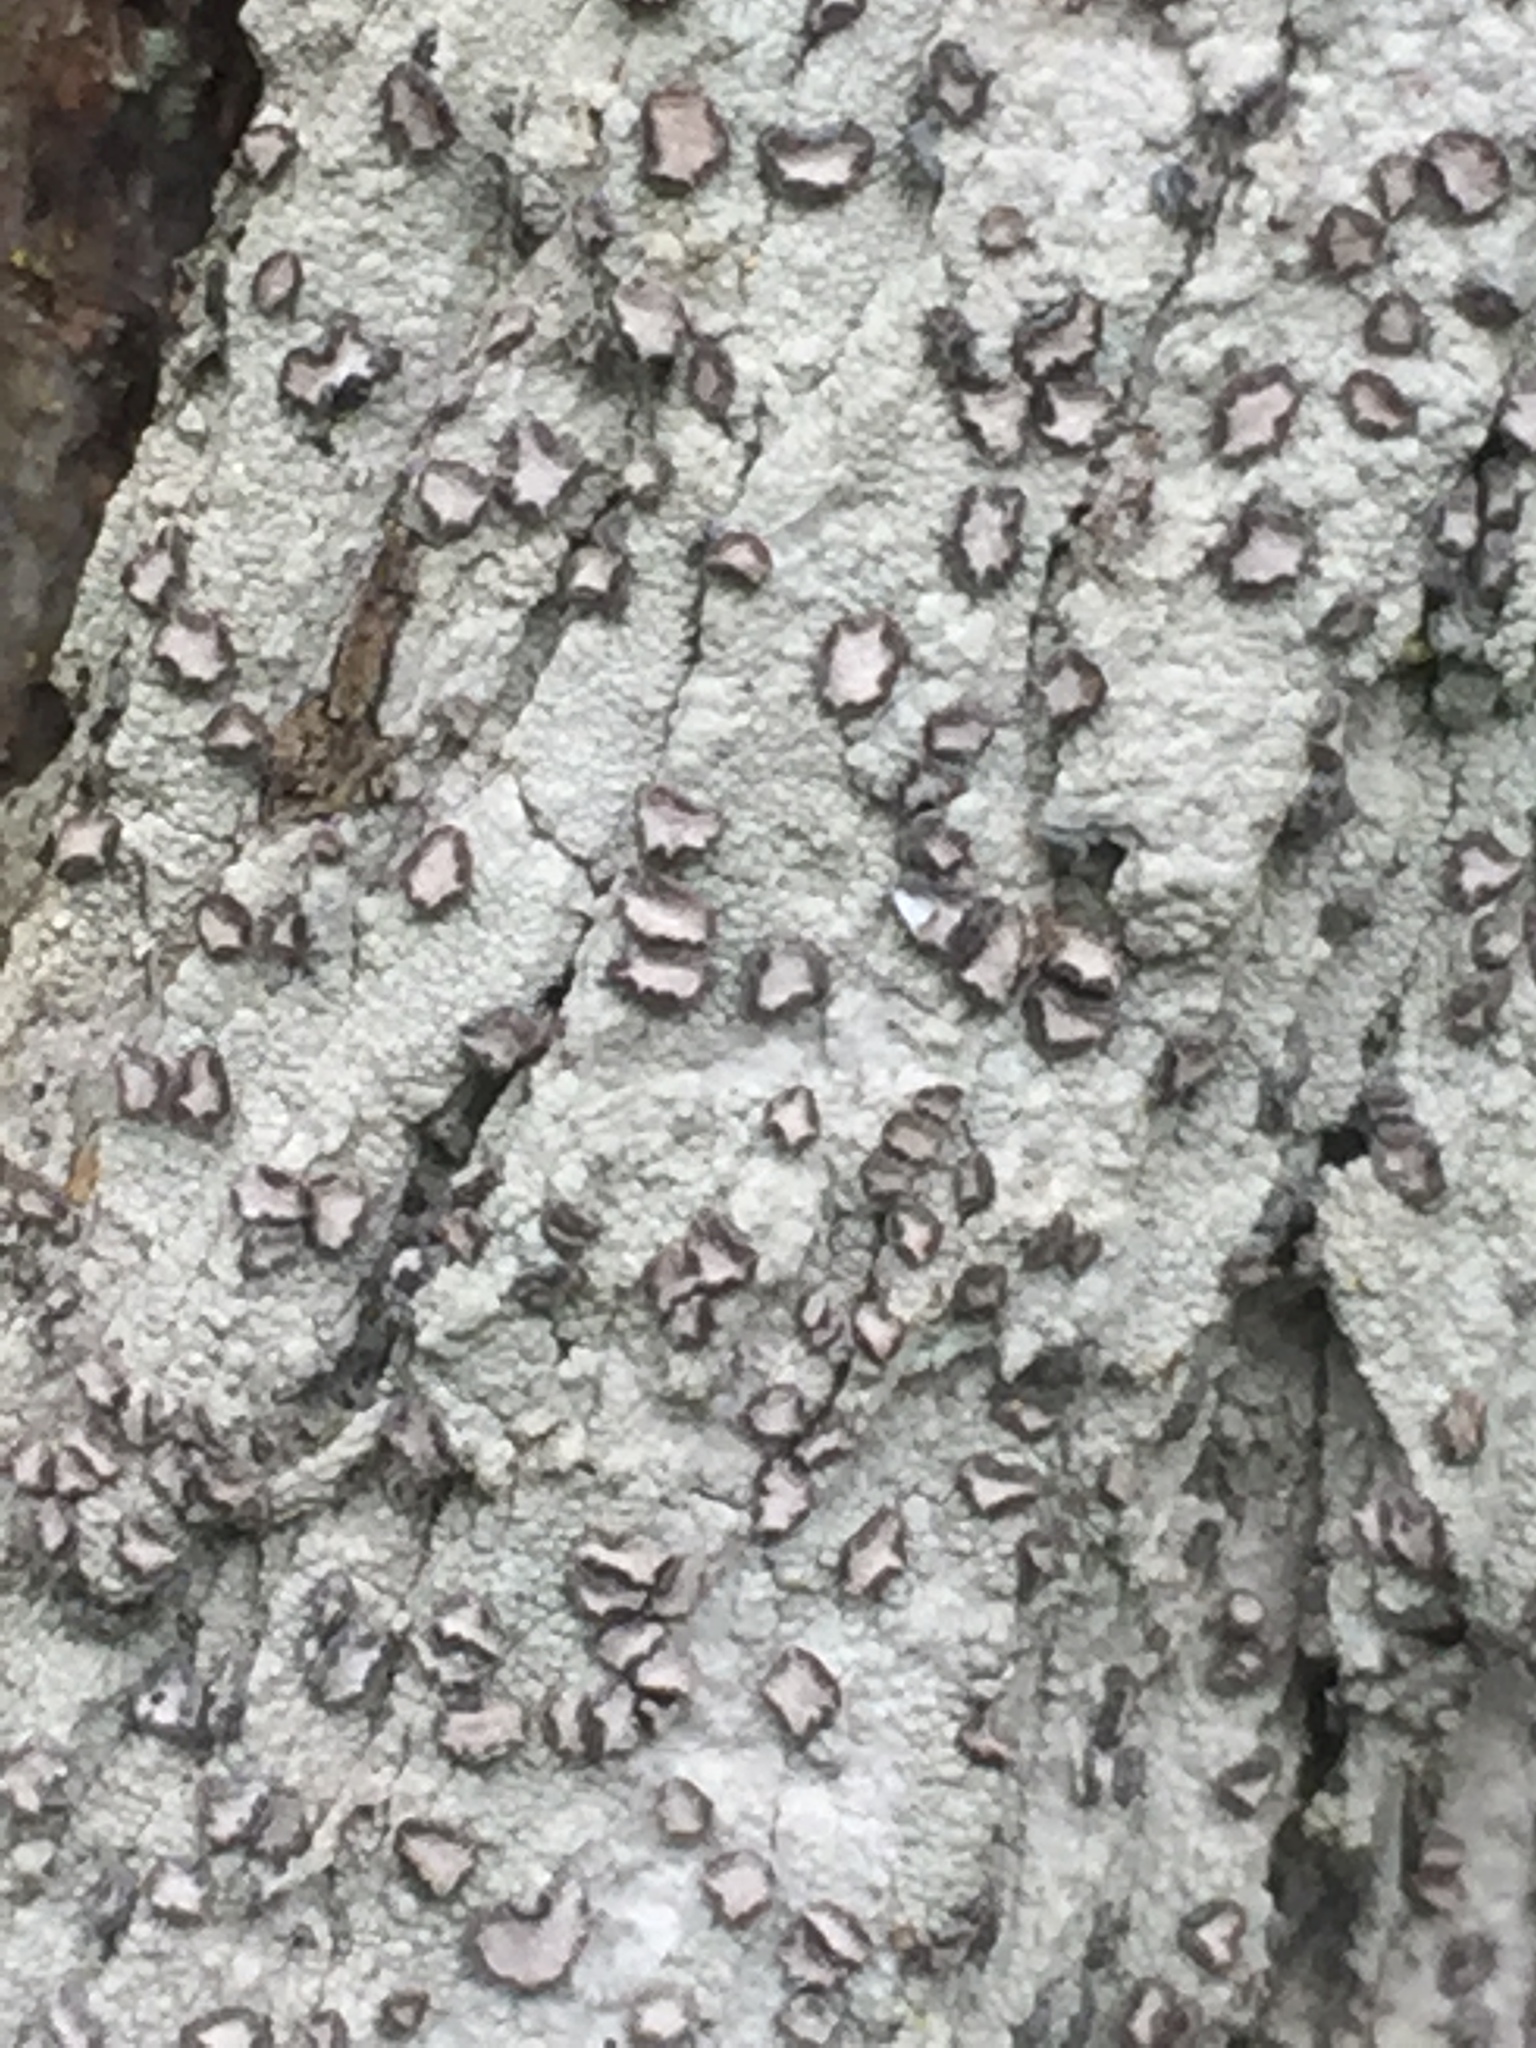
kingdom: Fungi
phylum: Ascomycota
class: Arthoniomycetes
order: Arthoniales
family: Roccellaceae
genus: Lecanactis
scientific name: Lecanactis subfarinosa
